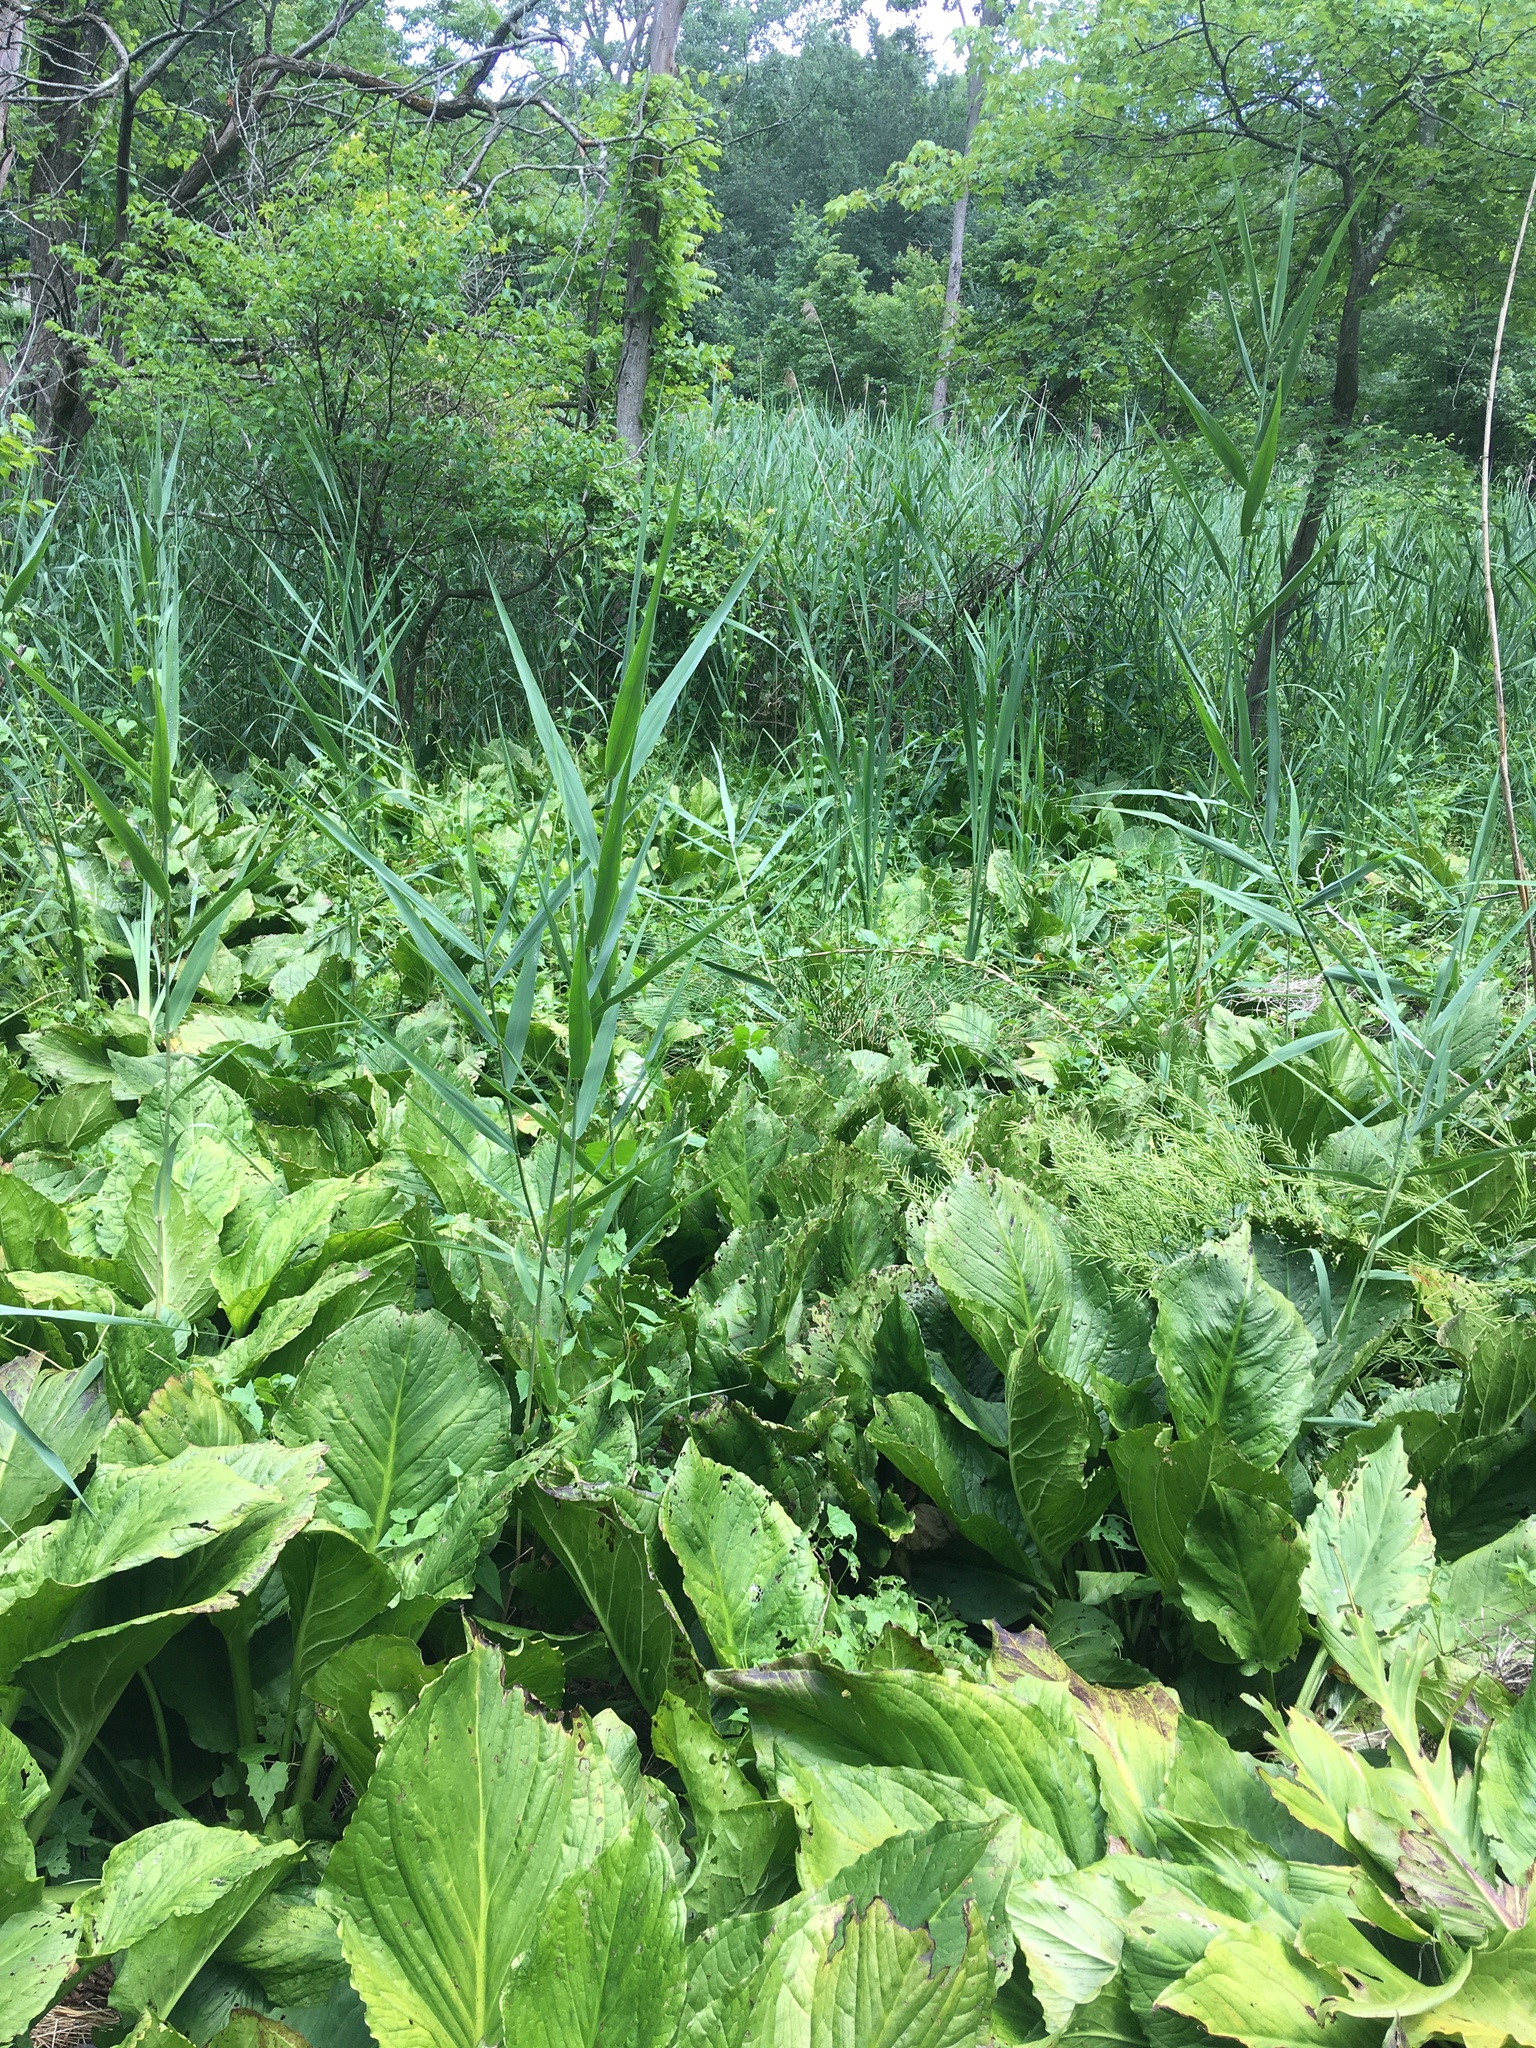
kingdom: Plantae
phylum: Tracheophyta
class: Liliopsida
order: Alismatales
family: Araceae
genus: Symplocarpus
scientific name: Symplocarpus foetidus
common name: Eastern skunk cabbage
